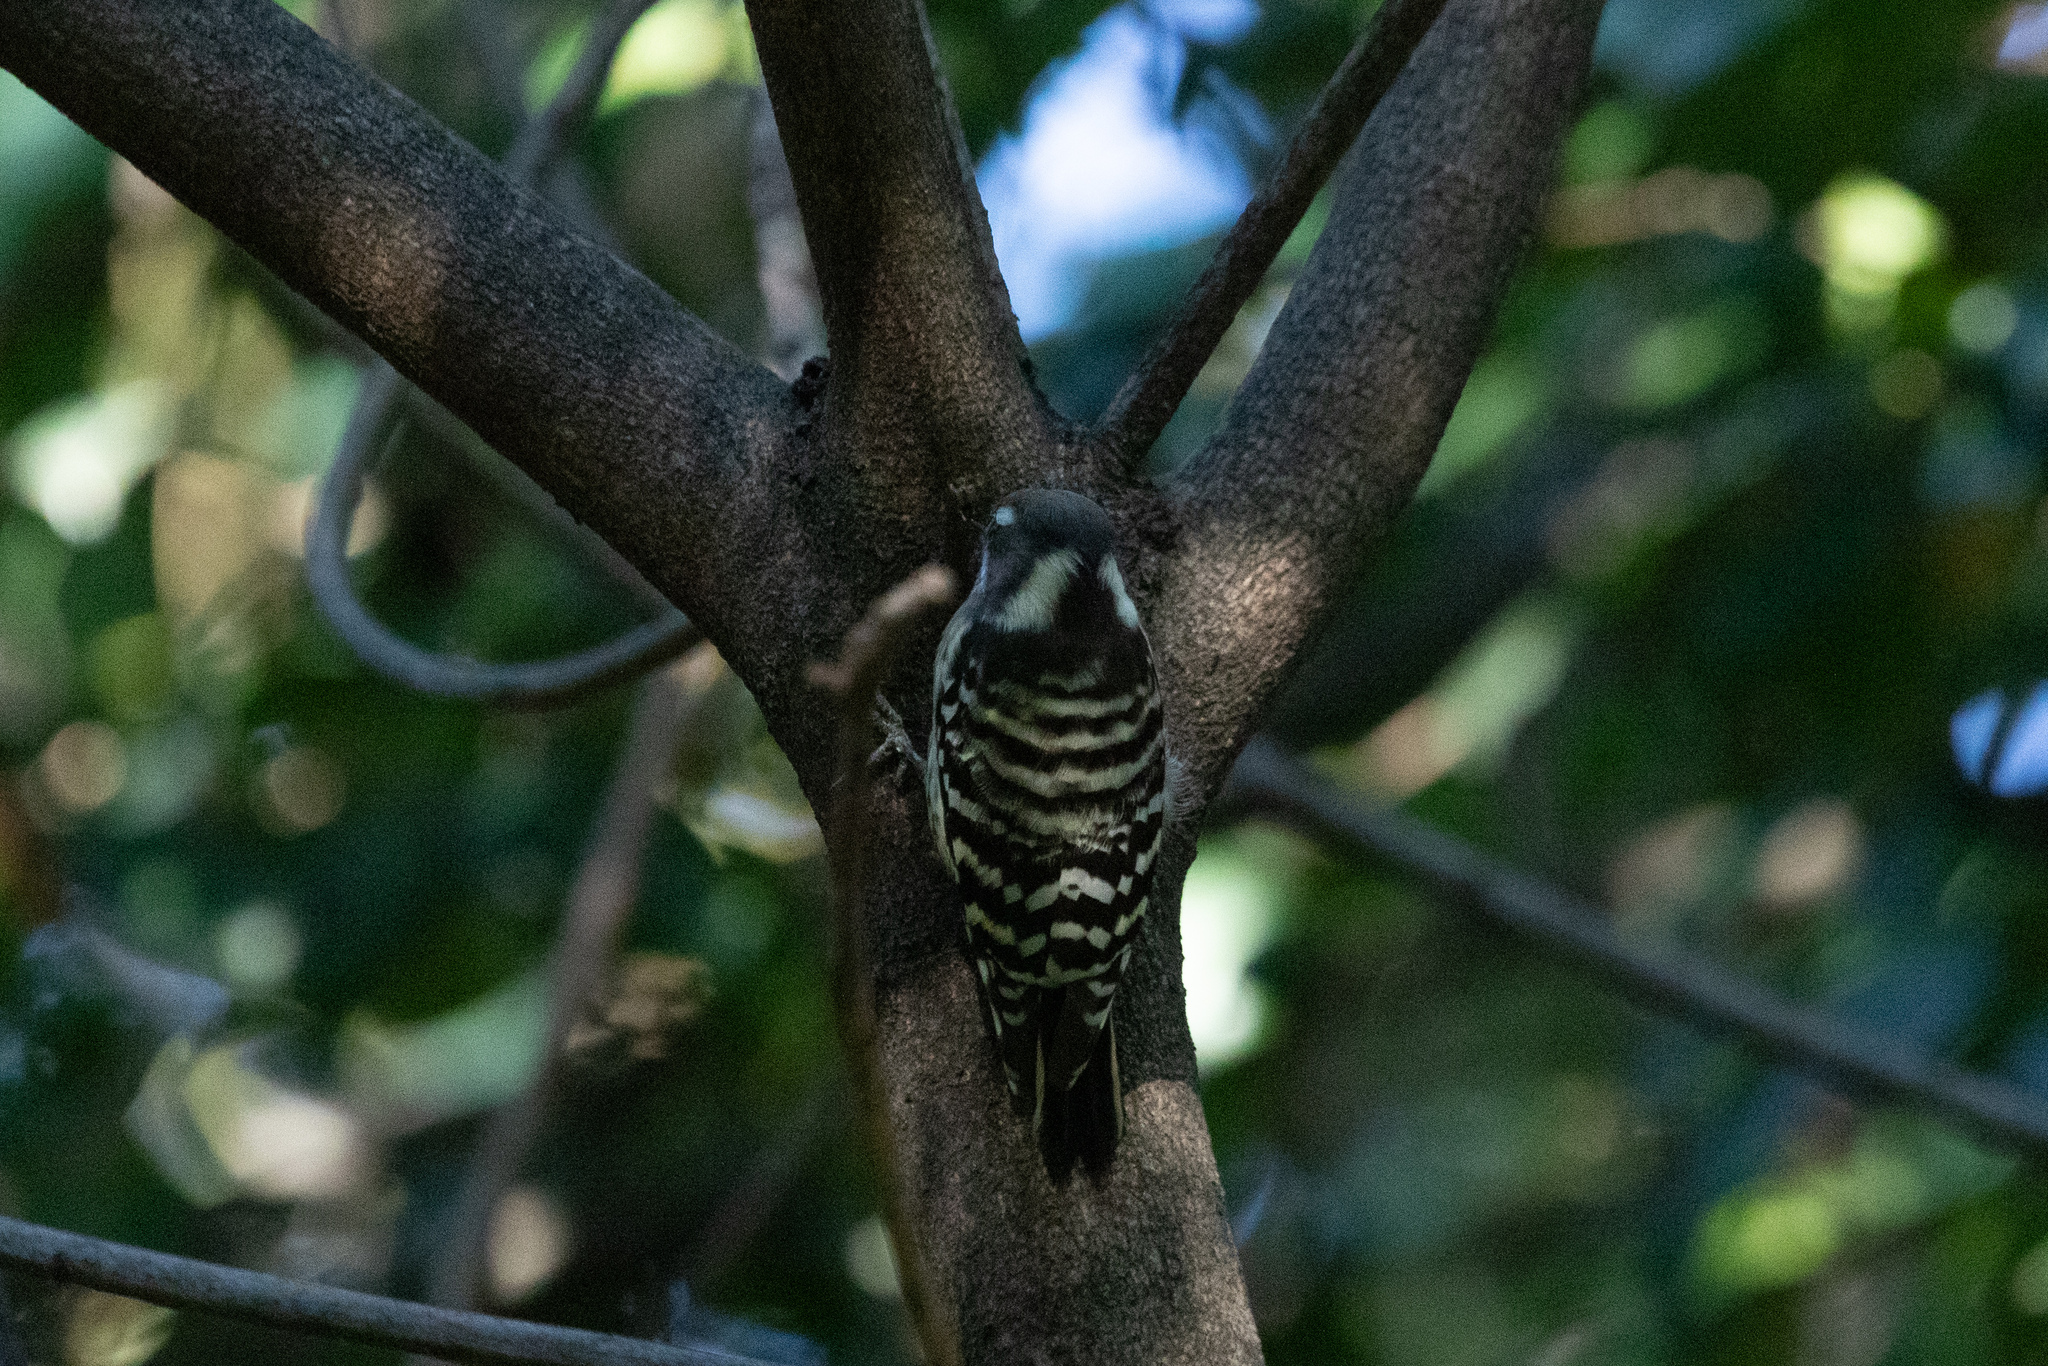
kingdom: Animalia
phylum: Chordata
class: Aves
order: Piciformes
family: Picidae
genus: Yungipicus
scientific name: Yungipicus kizuki
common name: Japanese pygmy woodpecker
